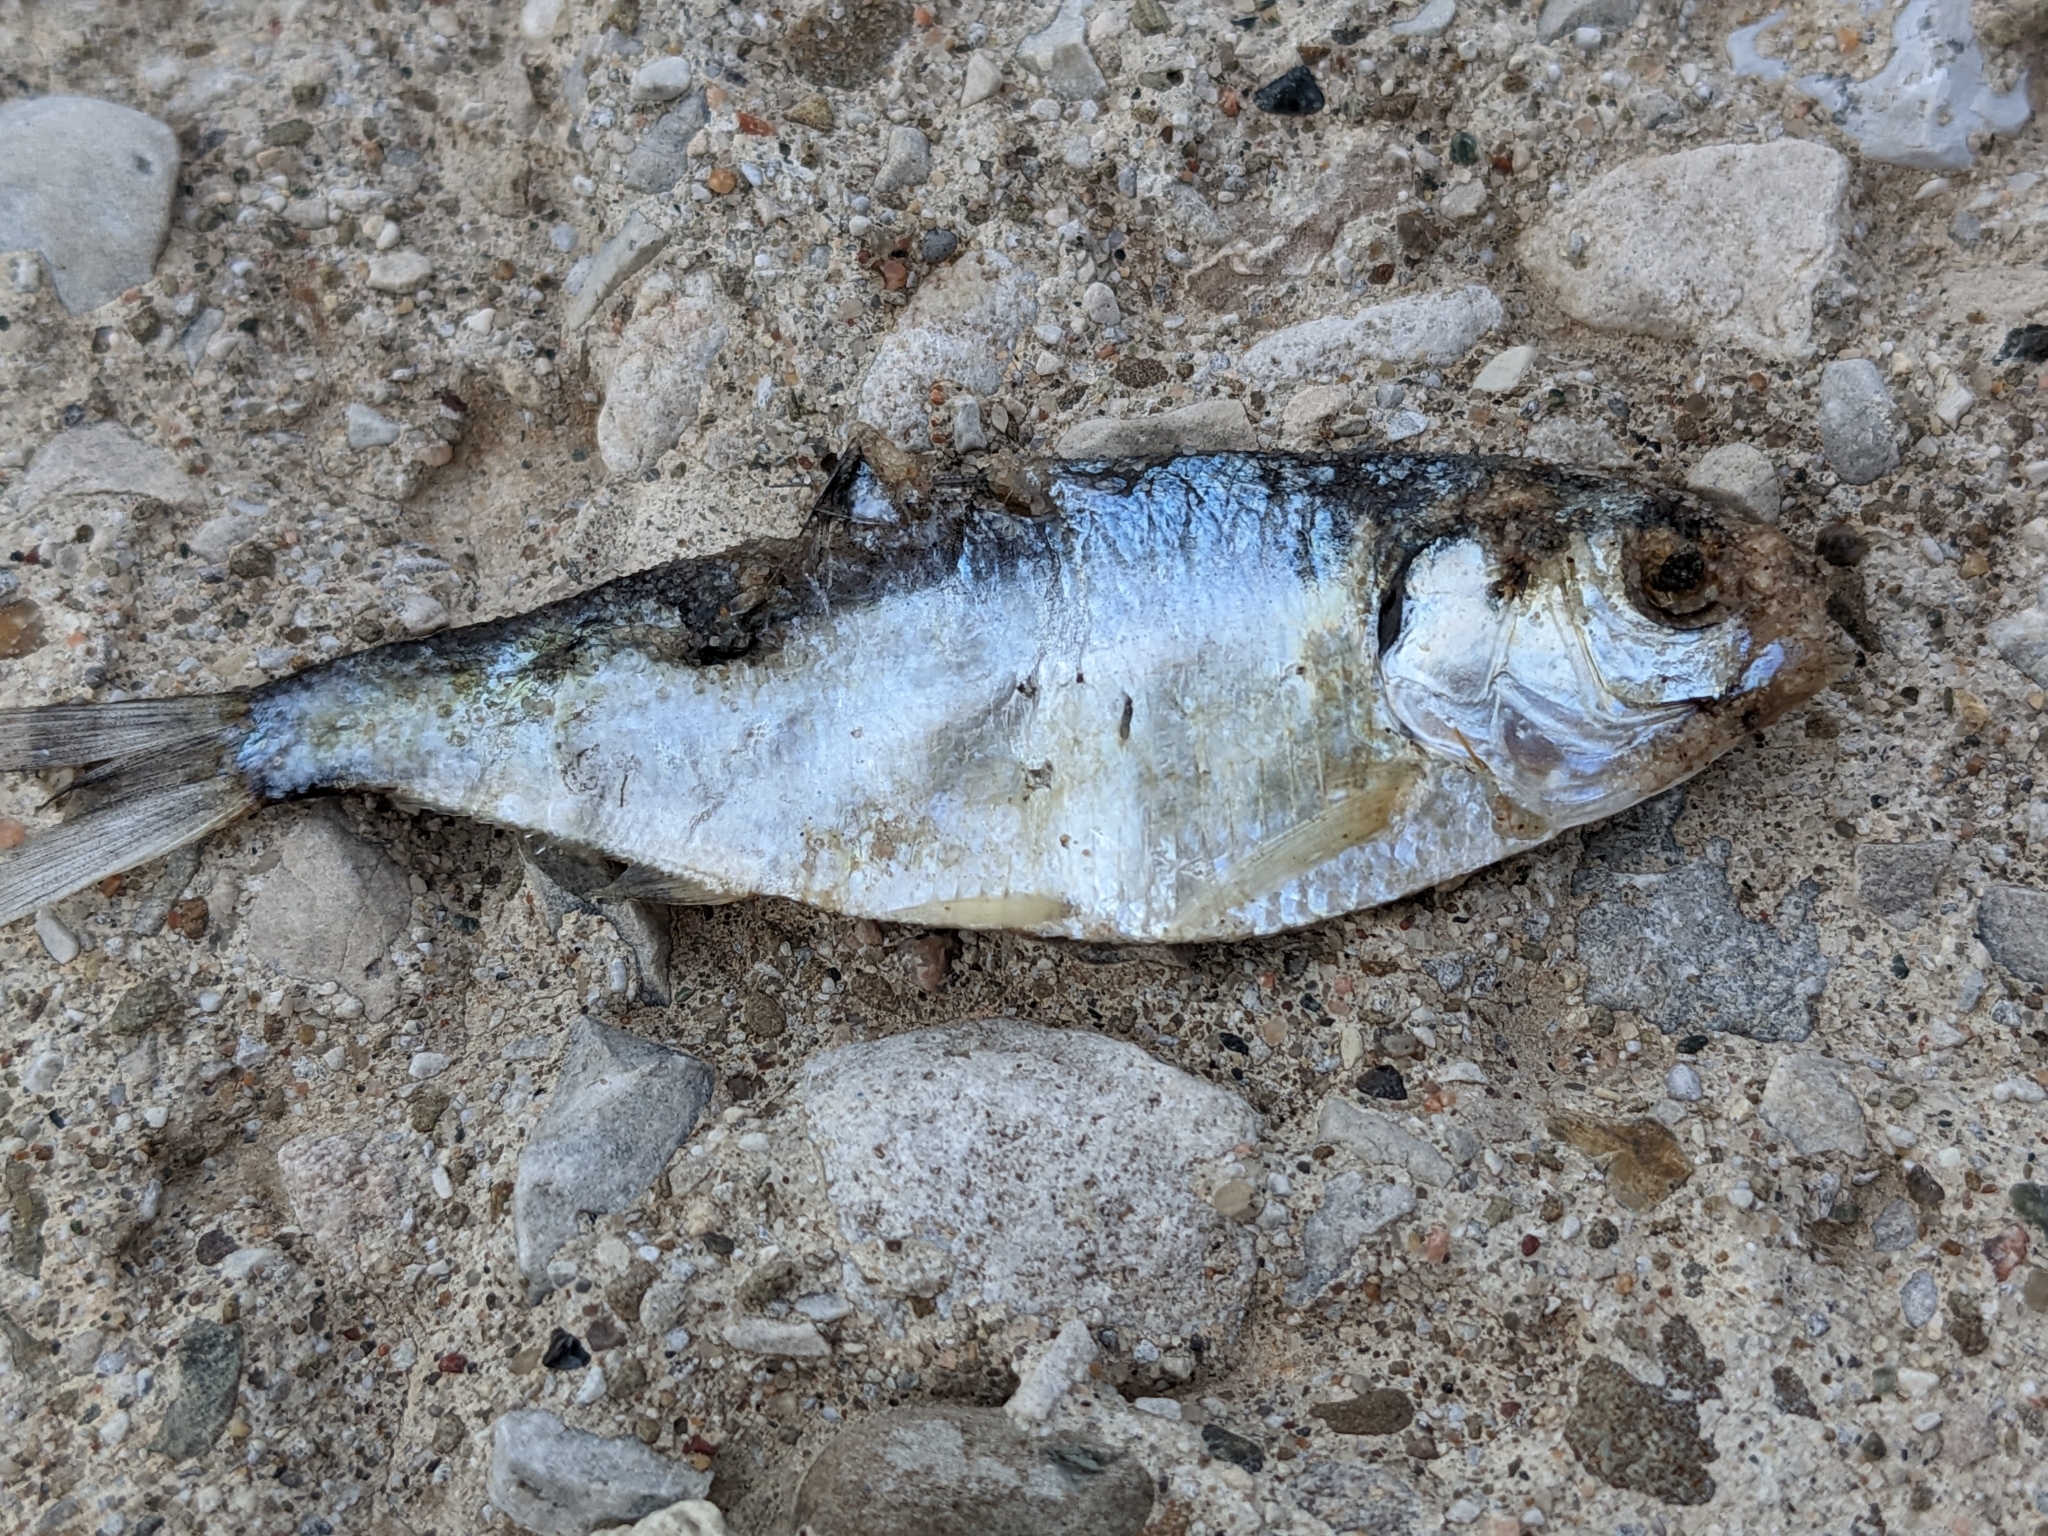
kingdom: Animalia
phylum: Chordata
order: Clupeiformes
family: Clupeidae
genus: Dorosoma
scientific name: Dorosoma cepedianum
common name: Gizzard shad
